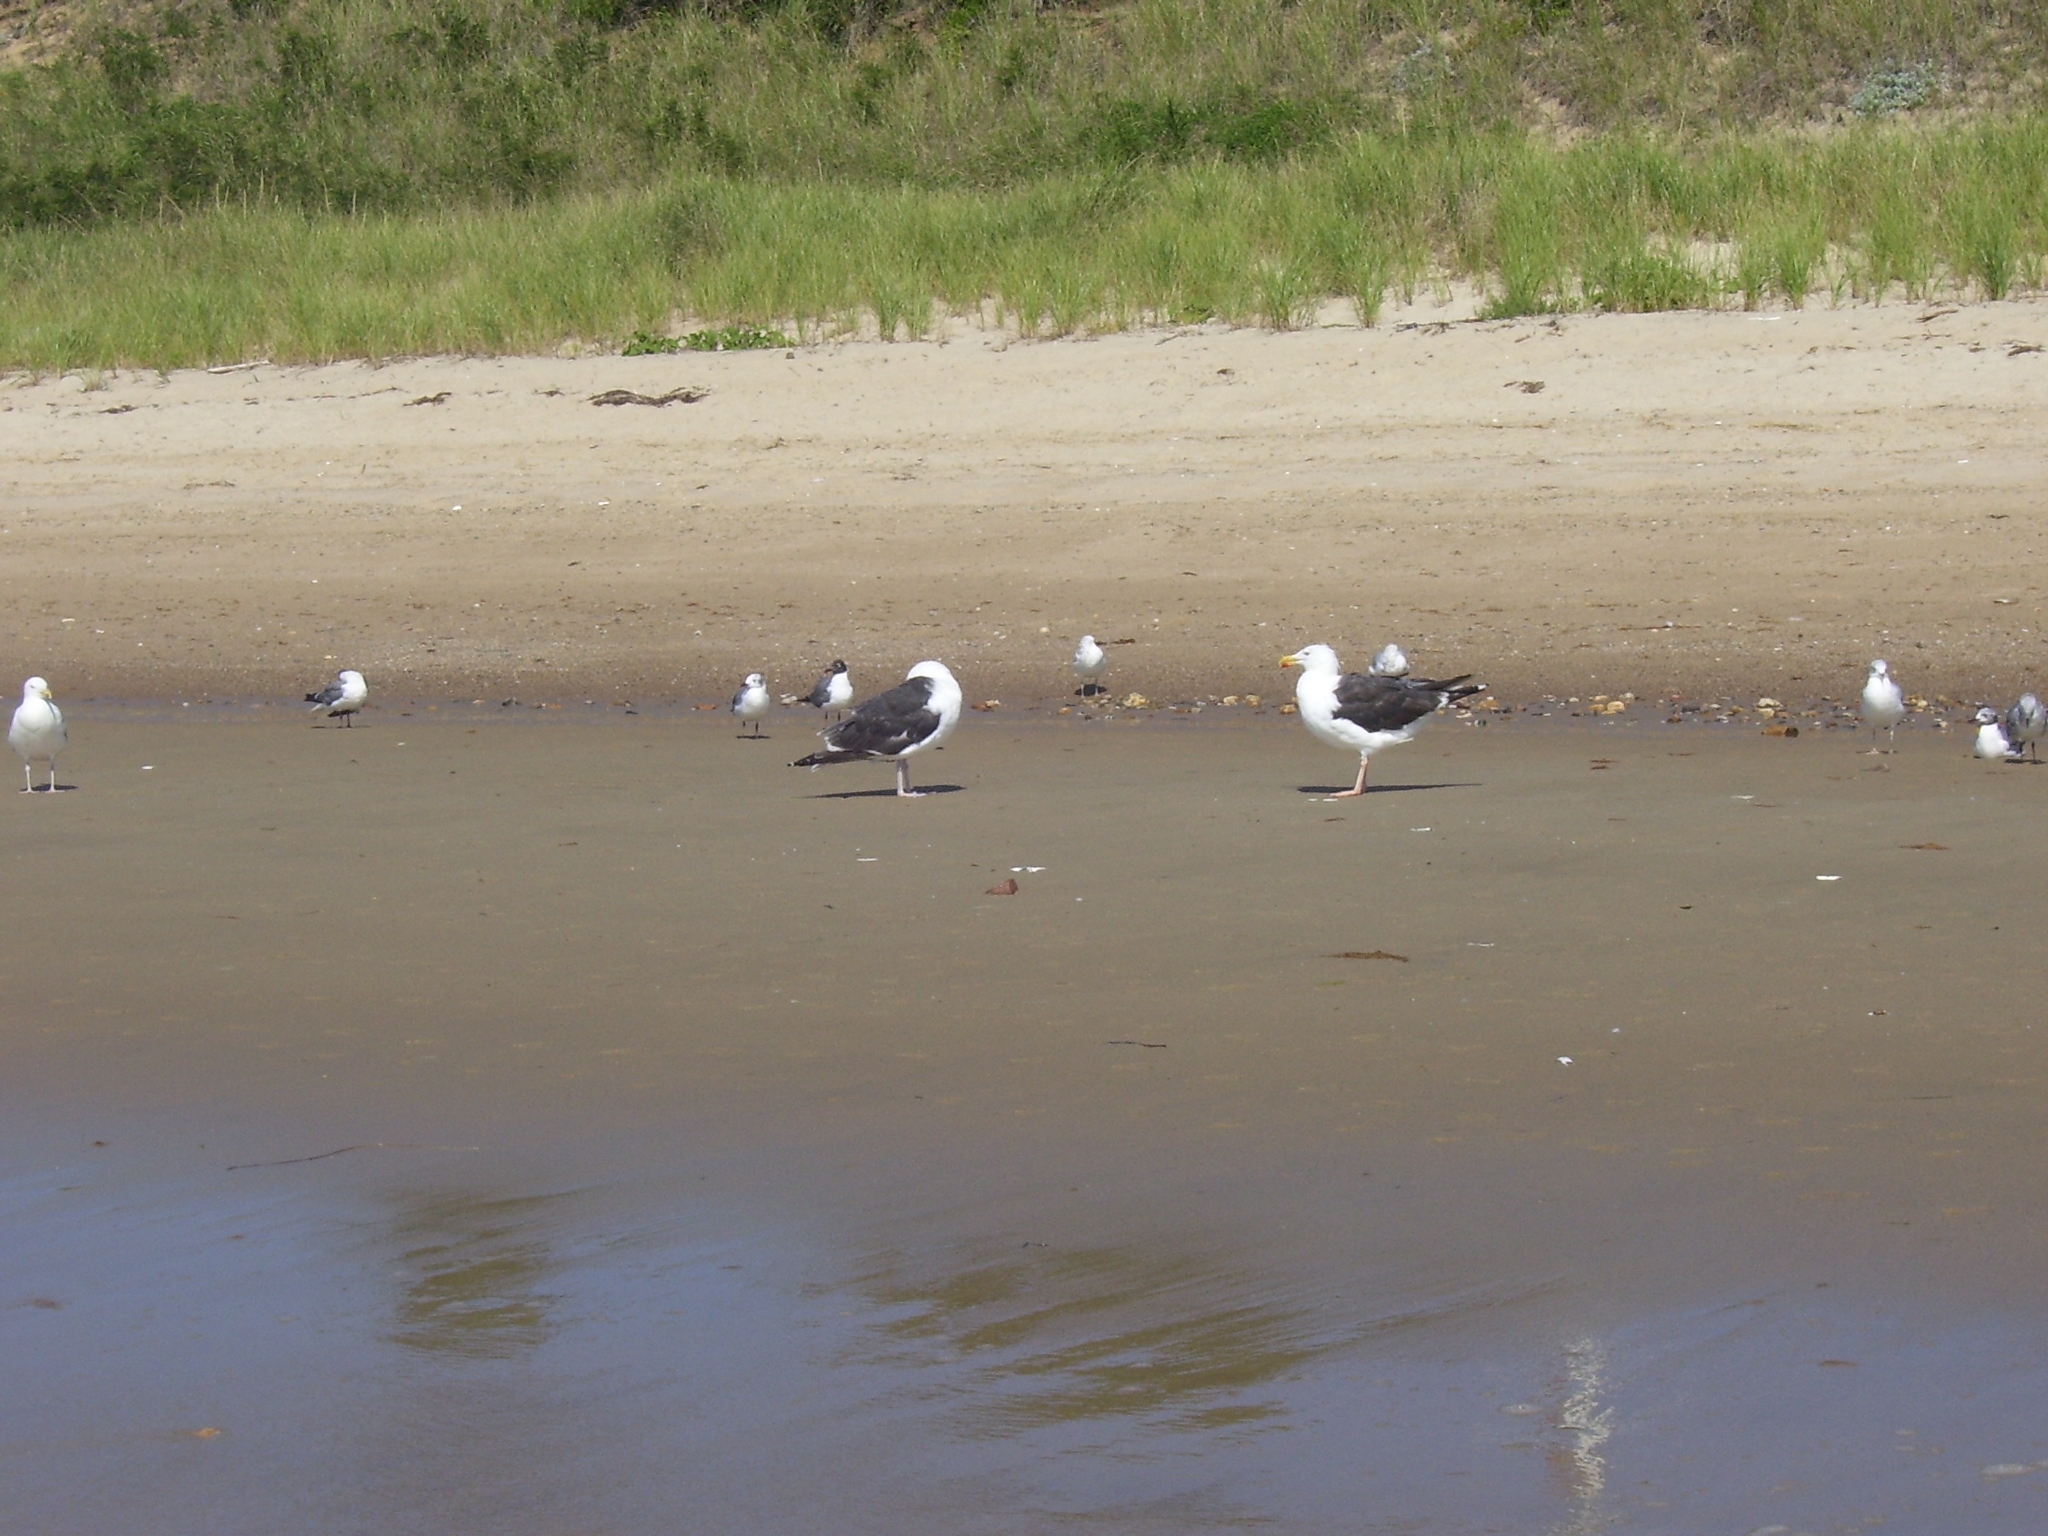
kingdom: Animalia
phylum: Chordata
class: Aves
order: Charadriiformes
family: Laridae
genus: Larus
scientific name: Larus marinus
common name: Great black-backed gull
